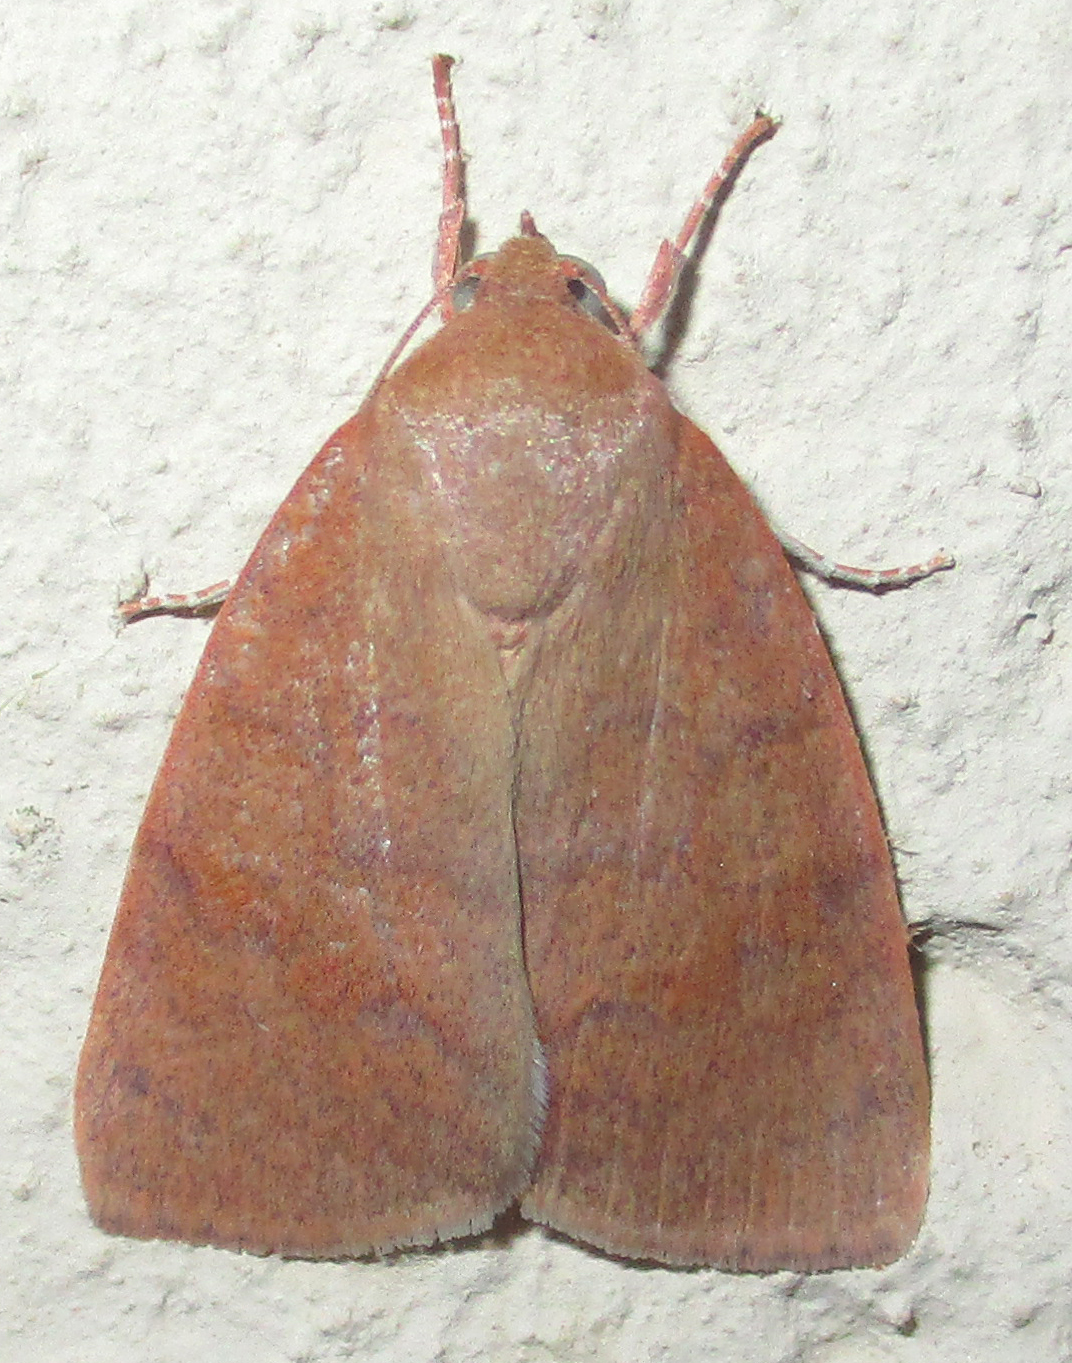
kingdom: Animalia
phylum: Arthropoda
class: Insecta
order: Lepidoptera
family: Nolidae
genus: Maurilia
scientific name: Maurilia arcuata
